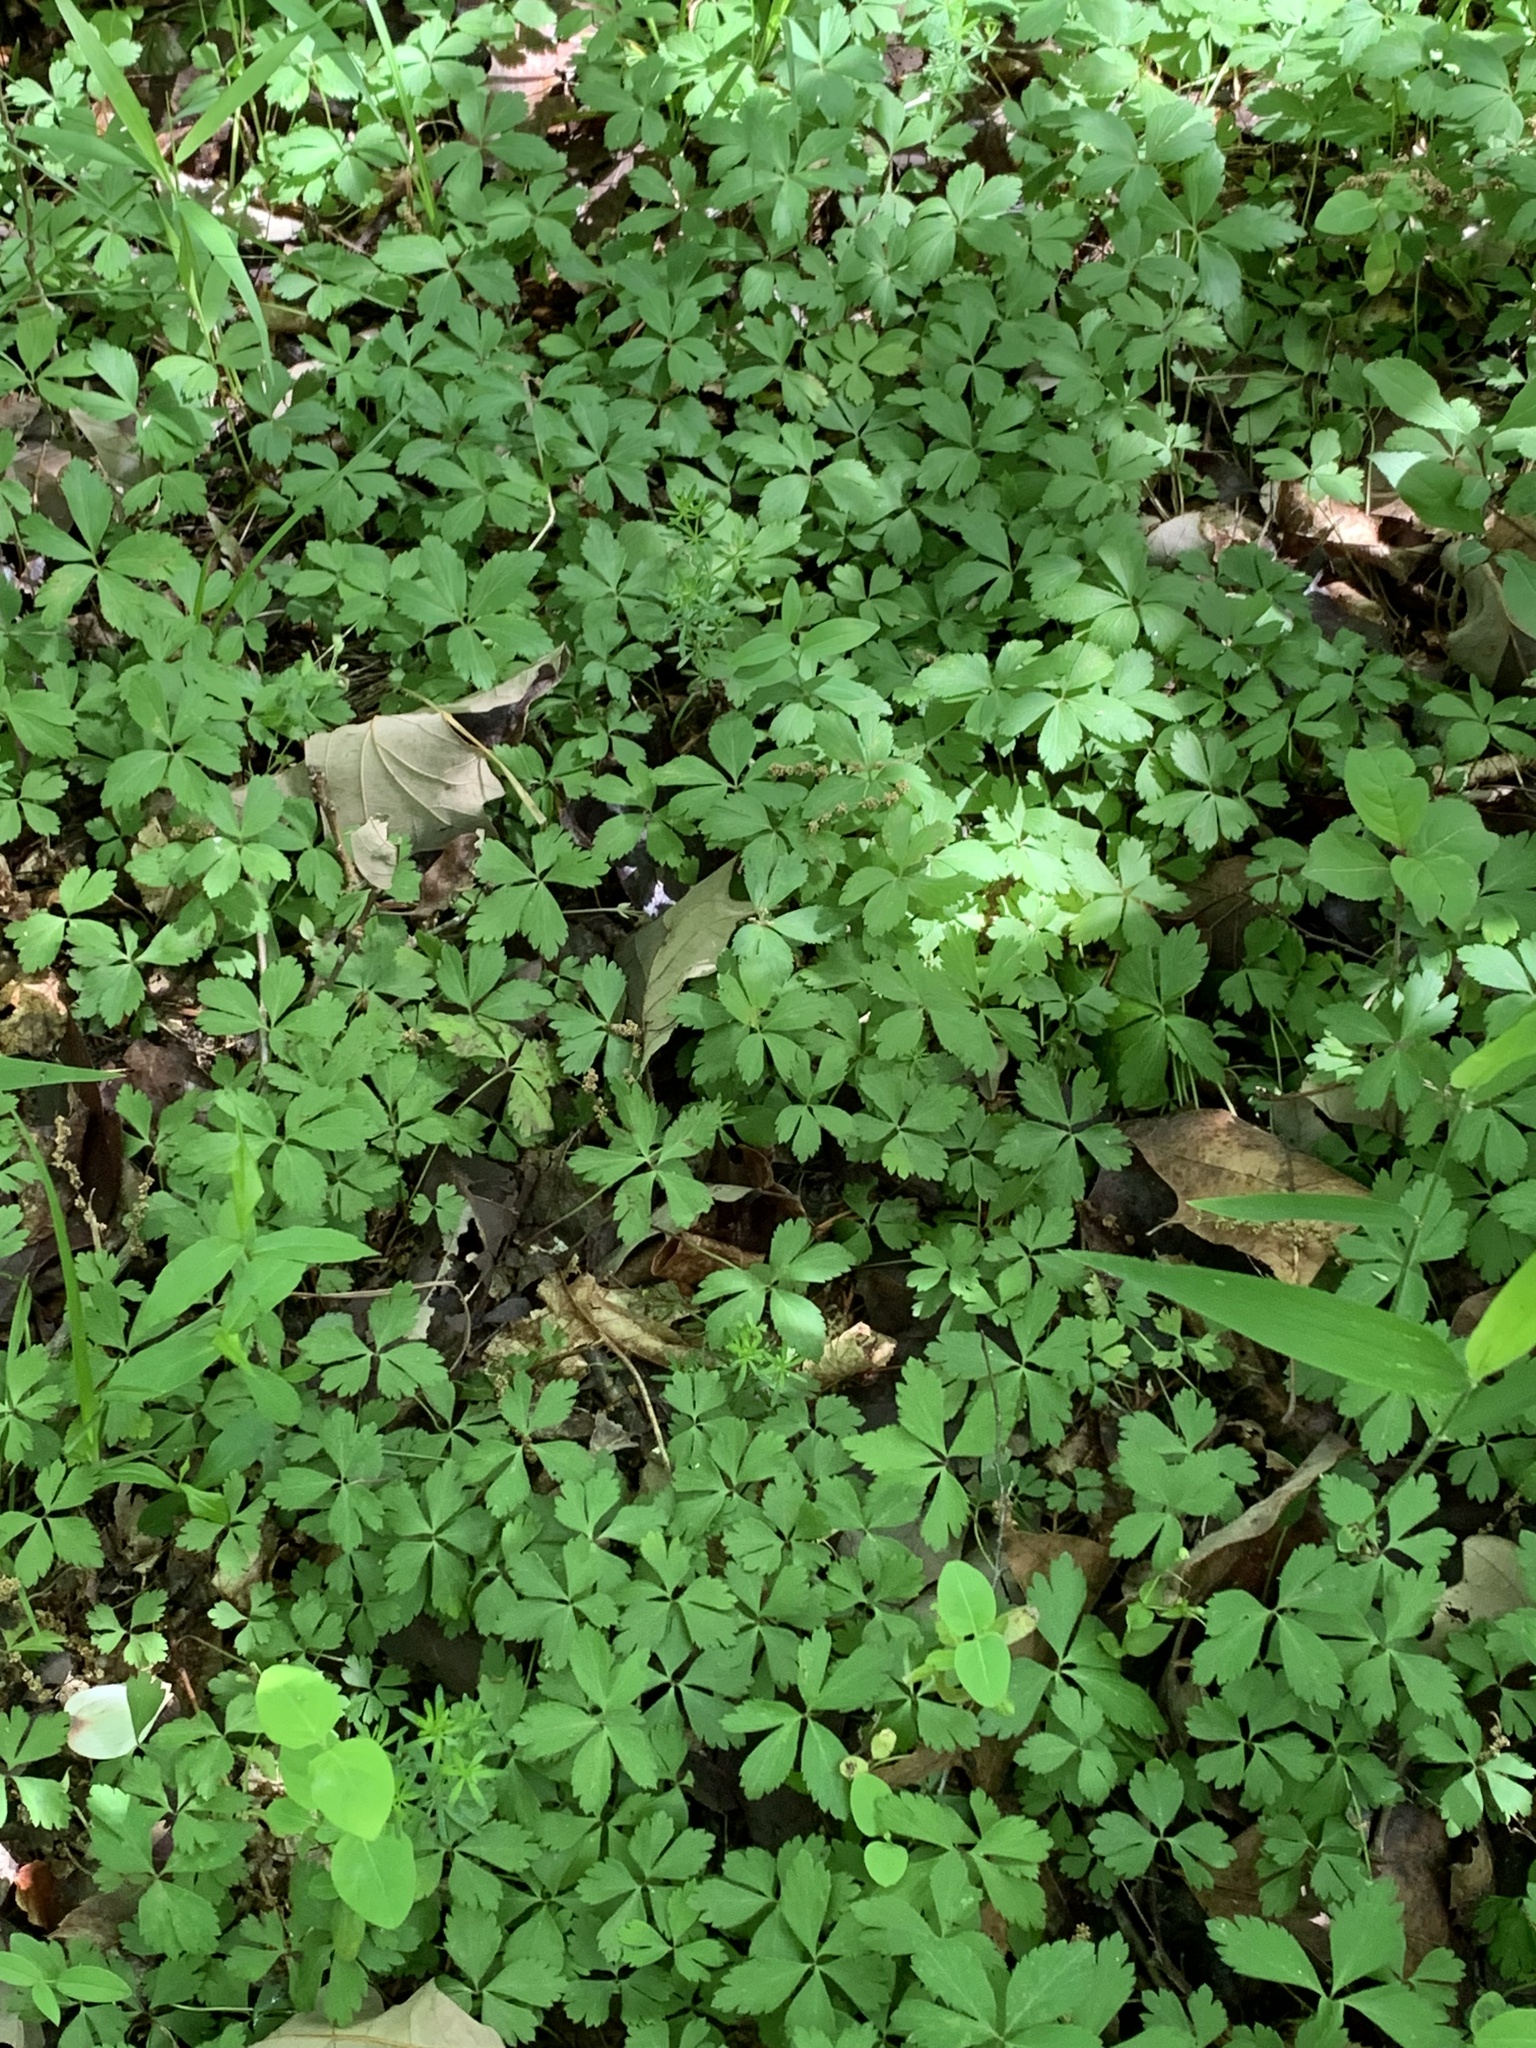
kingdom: Plantae
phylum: Tracheophyta
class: Magnoliopsida
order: Ranunculales
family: Ranunculaceae
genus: Anemone
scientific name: Anemone quinquefolia
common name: Wood anemone
